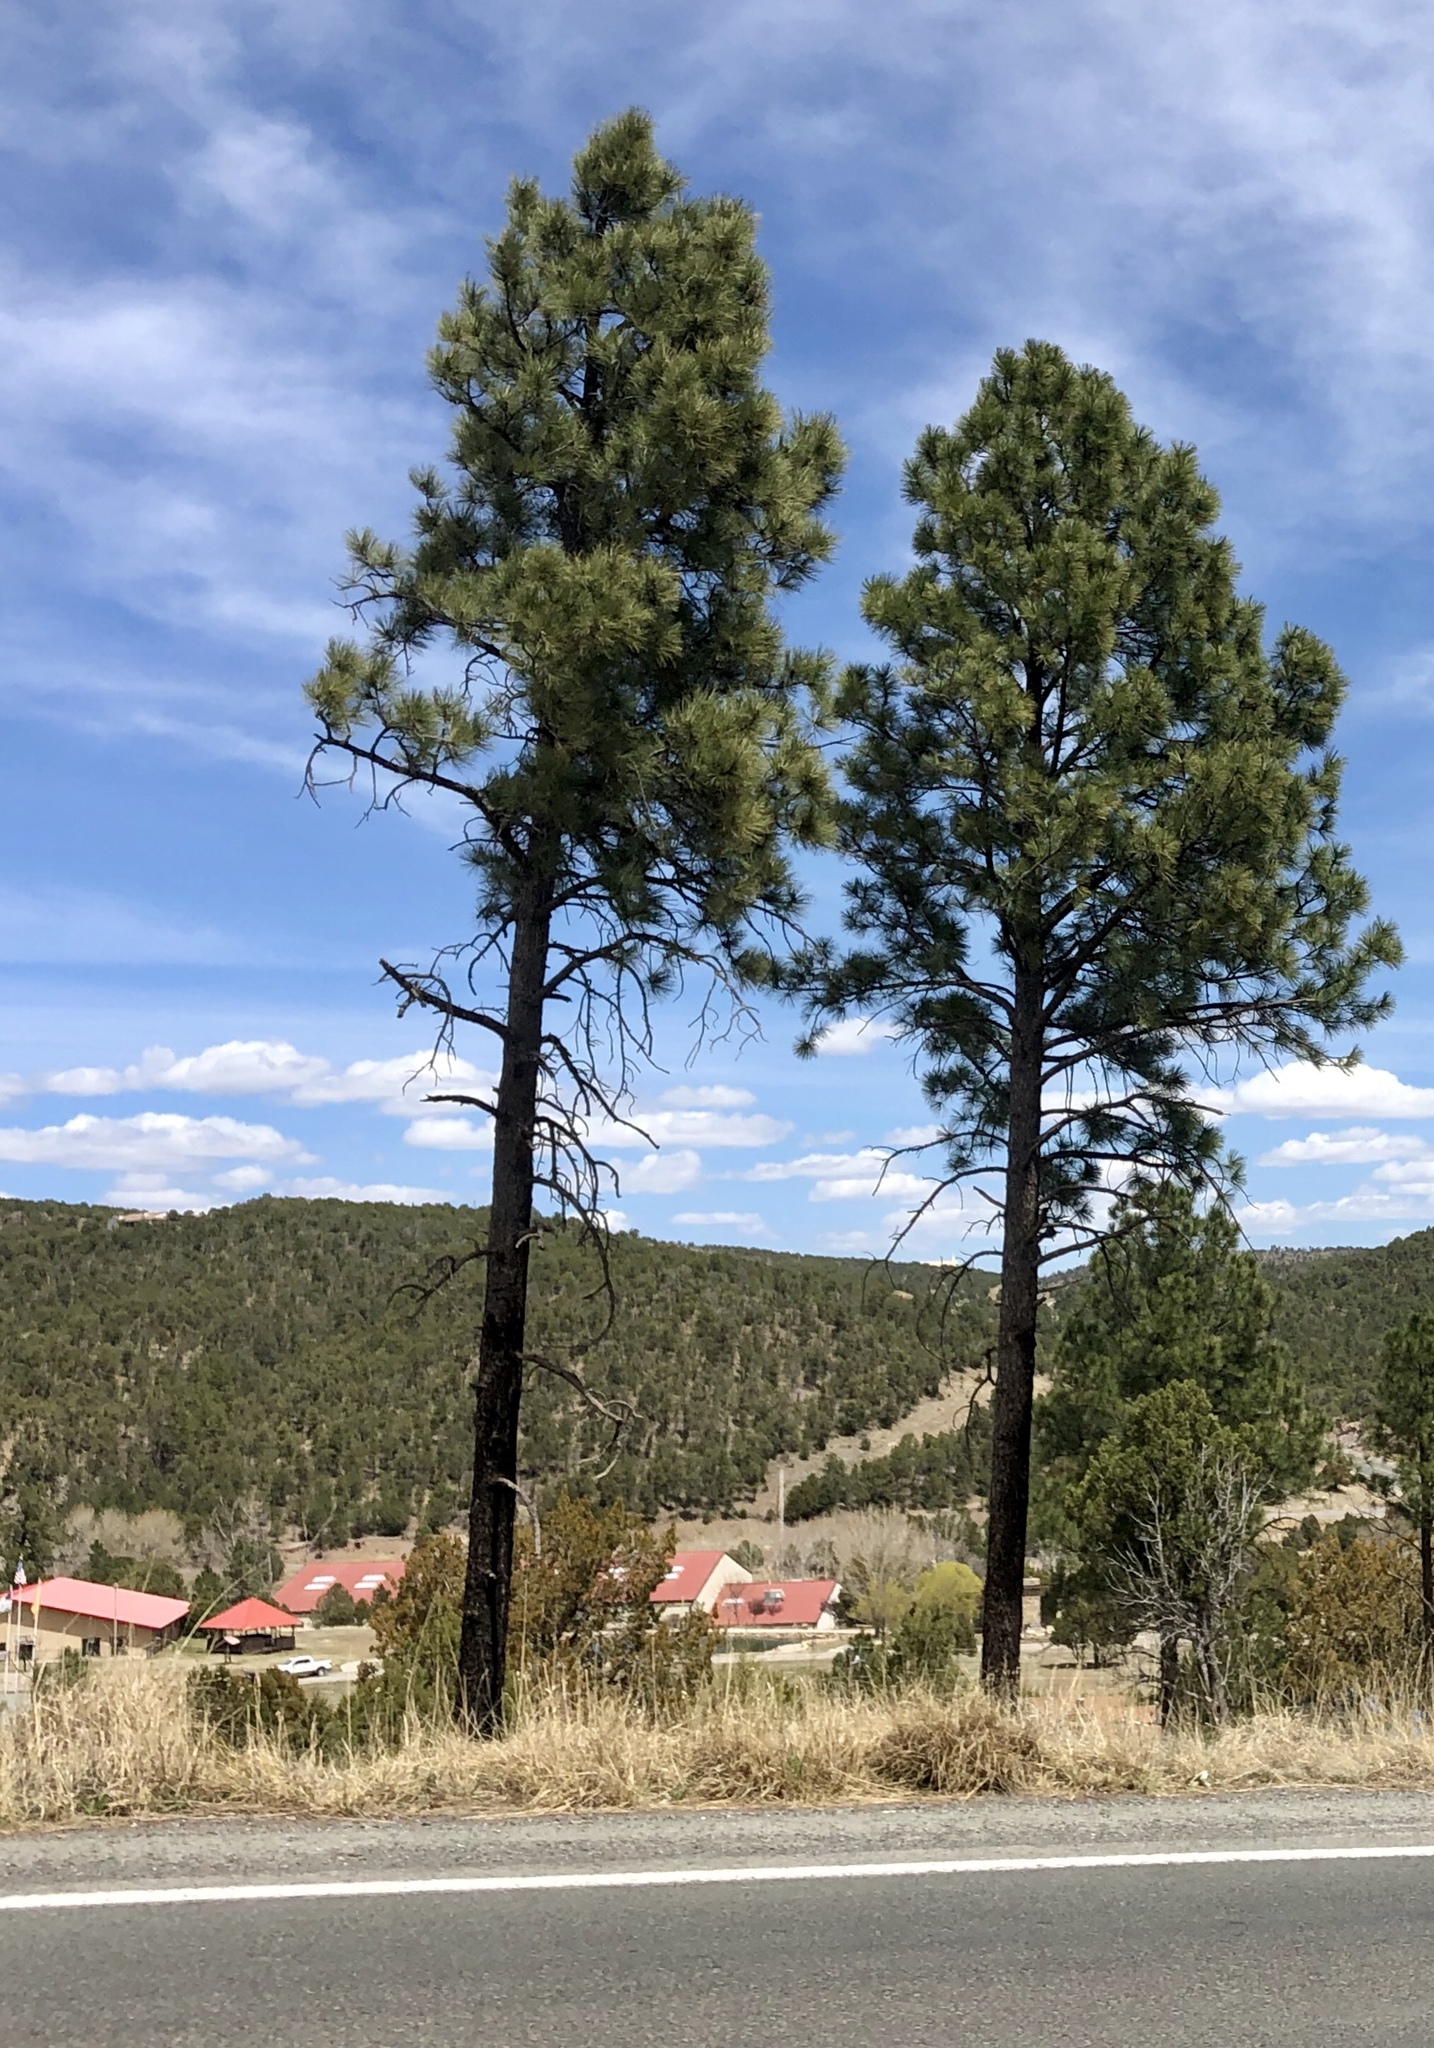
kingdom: Plantae
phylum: Tracheophyta
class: Pinopsida
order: Pinales
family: Pinaceae
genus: Pinus
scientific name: Pinus ponderosa
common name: Western yellow-pine
